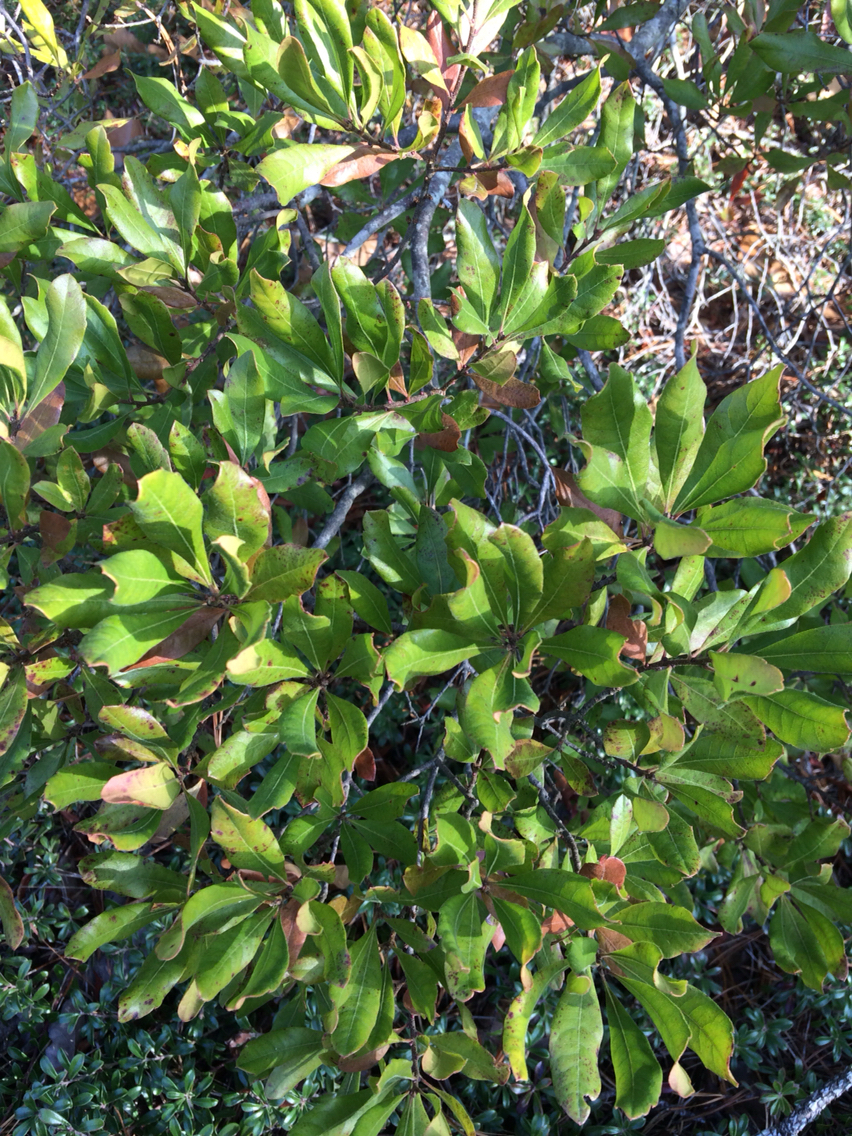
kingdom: Plantae
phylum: Tracheophyta
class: Magnoliopsida
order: Fagales
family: Myricaceae
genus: Morella
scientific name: Morella pensylvanica
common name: Northern bayberry
